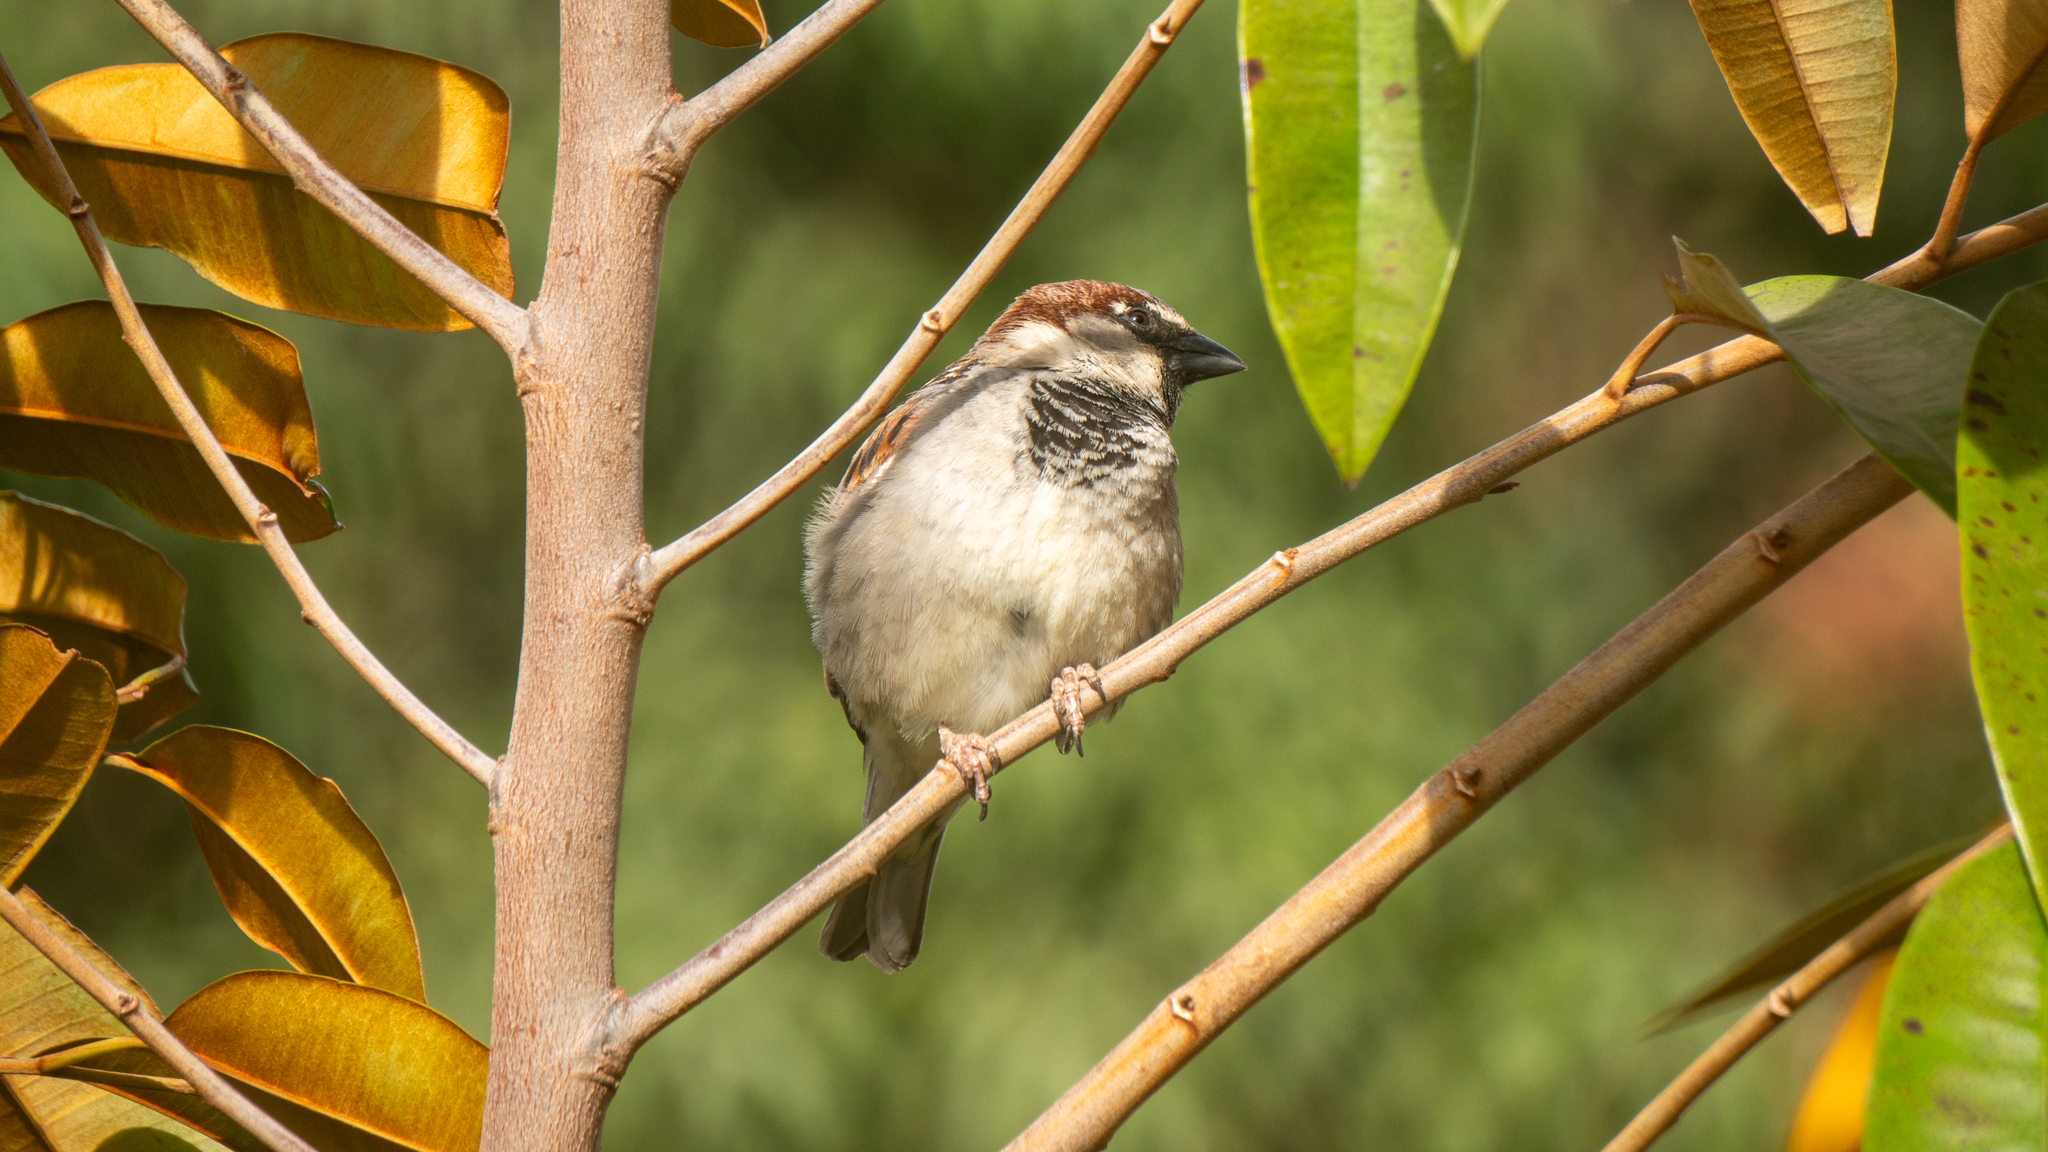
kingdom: Animalia
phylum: Chordata
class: Aves
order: Passeriformes
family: Passeridae
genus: Passer
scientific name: Passer domesticus
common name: House sparrow
